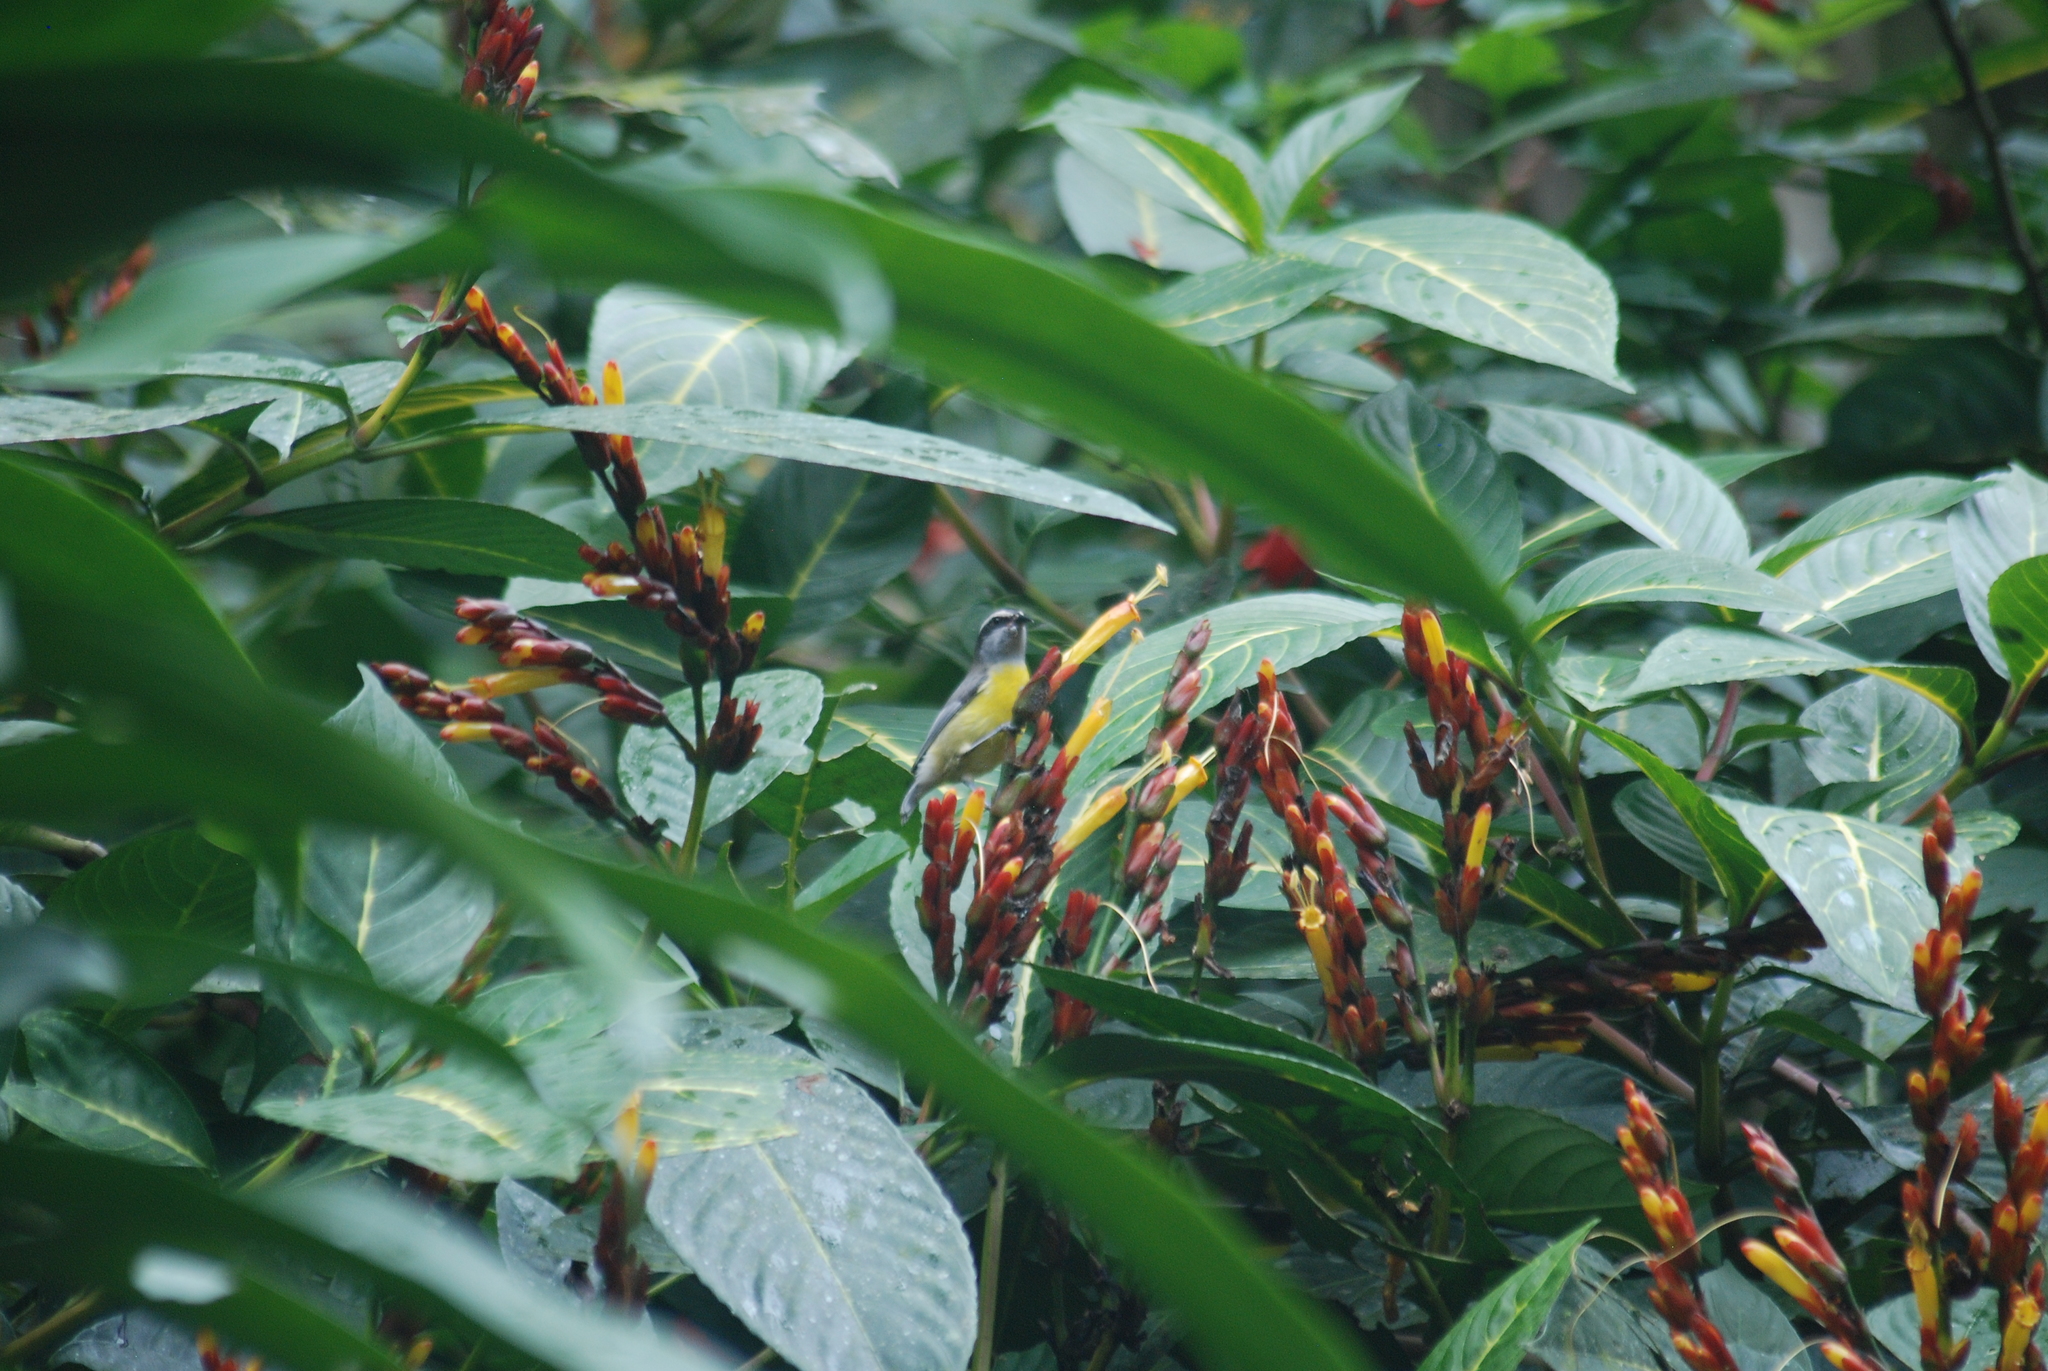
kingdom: Animalia
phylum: Chordata
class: Aves
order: Passeriformes
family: Thraupidae
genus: Coereba
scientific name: Coereba flaveola
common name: Bananaquit
